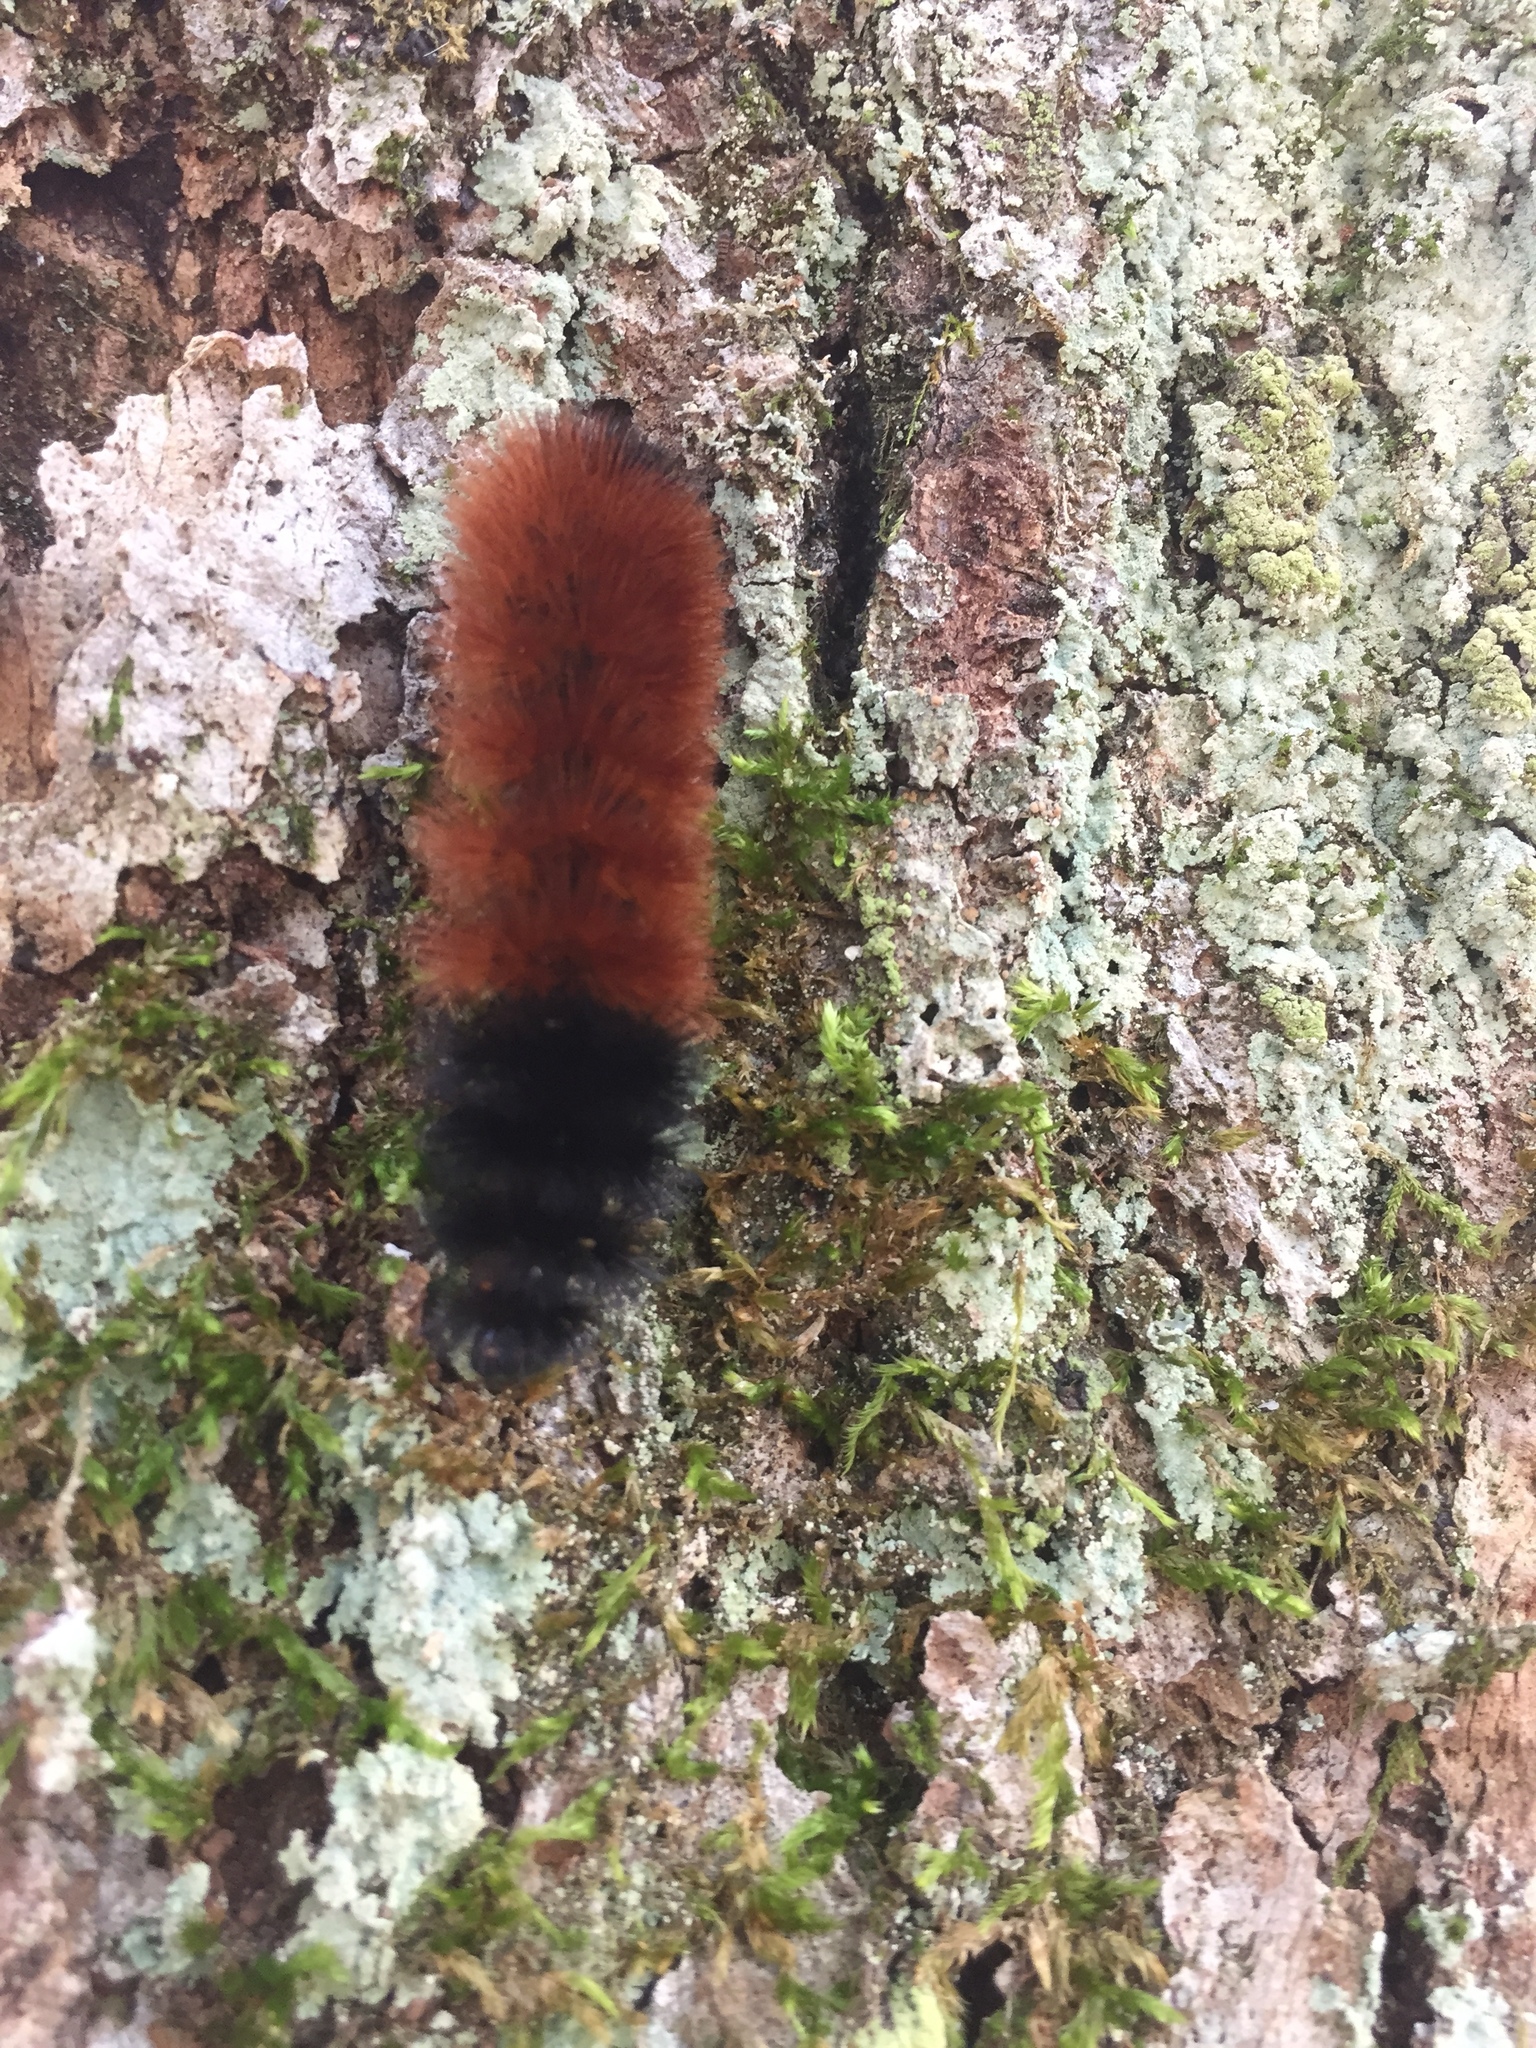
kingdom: Animalia
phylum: Arthropoda
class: Insecta
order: Lepidoptera
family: Erebidae
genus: Pyrrharctia
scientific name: Pyrrharctia isabella
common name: Isabella tiger moth
